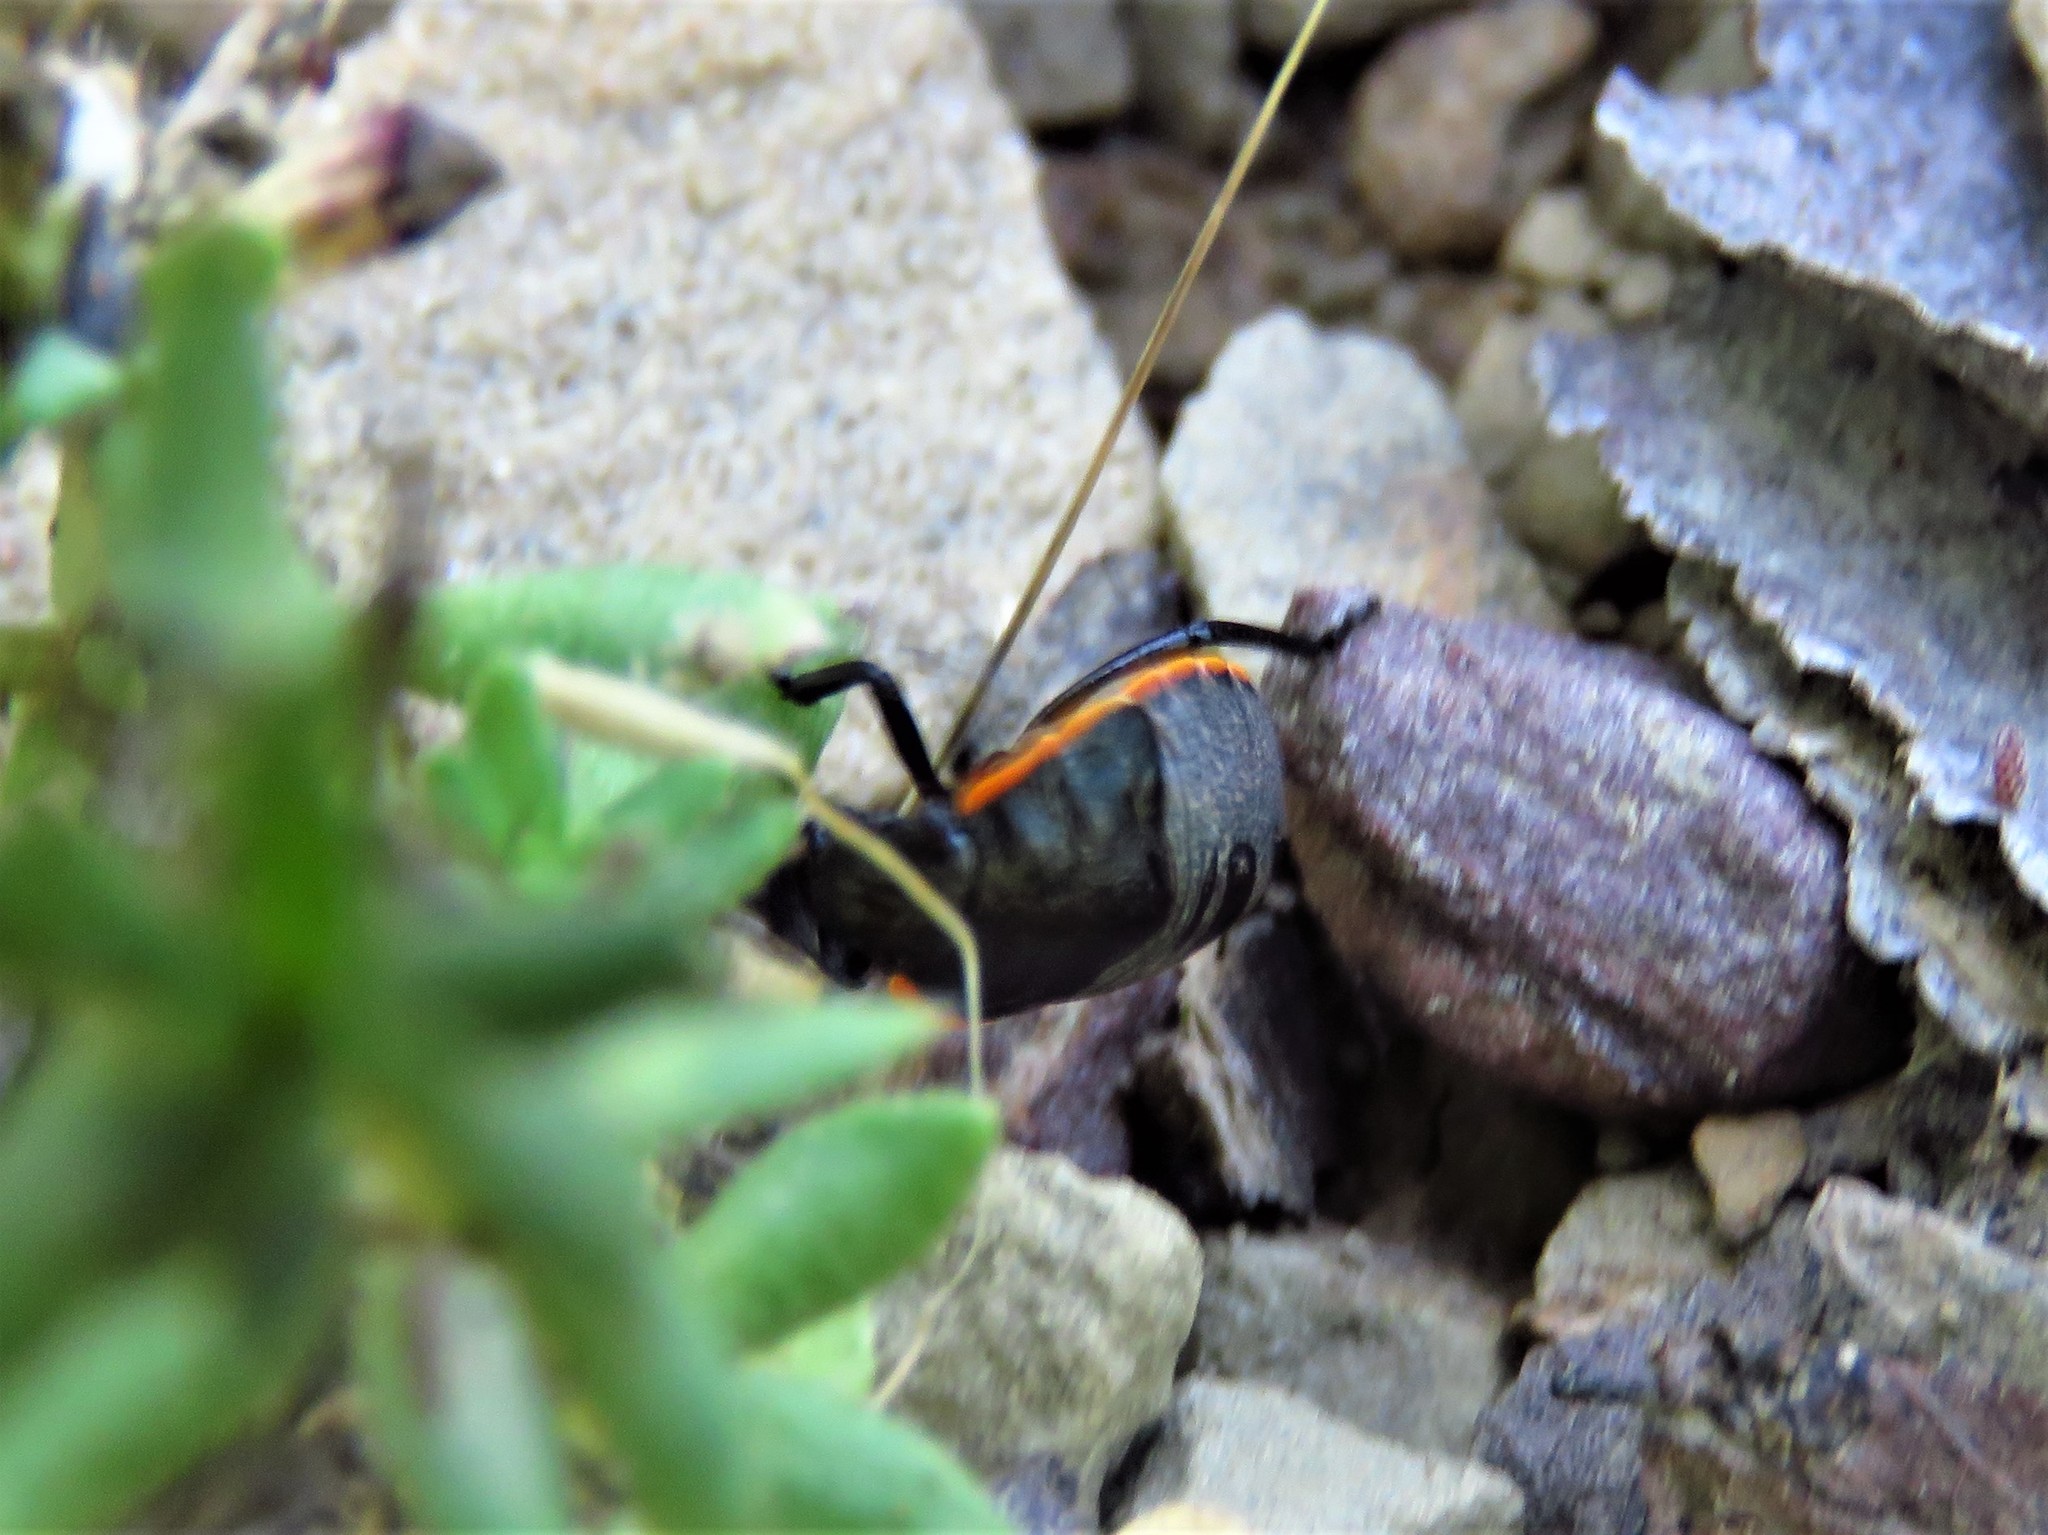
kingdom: Animalia
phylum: Arthropoda
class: Insecta
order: Hemiptera
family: Pentatomidae
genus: Chlorochroa
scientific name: Chlorochroa ligata
